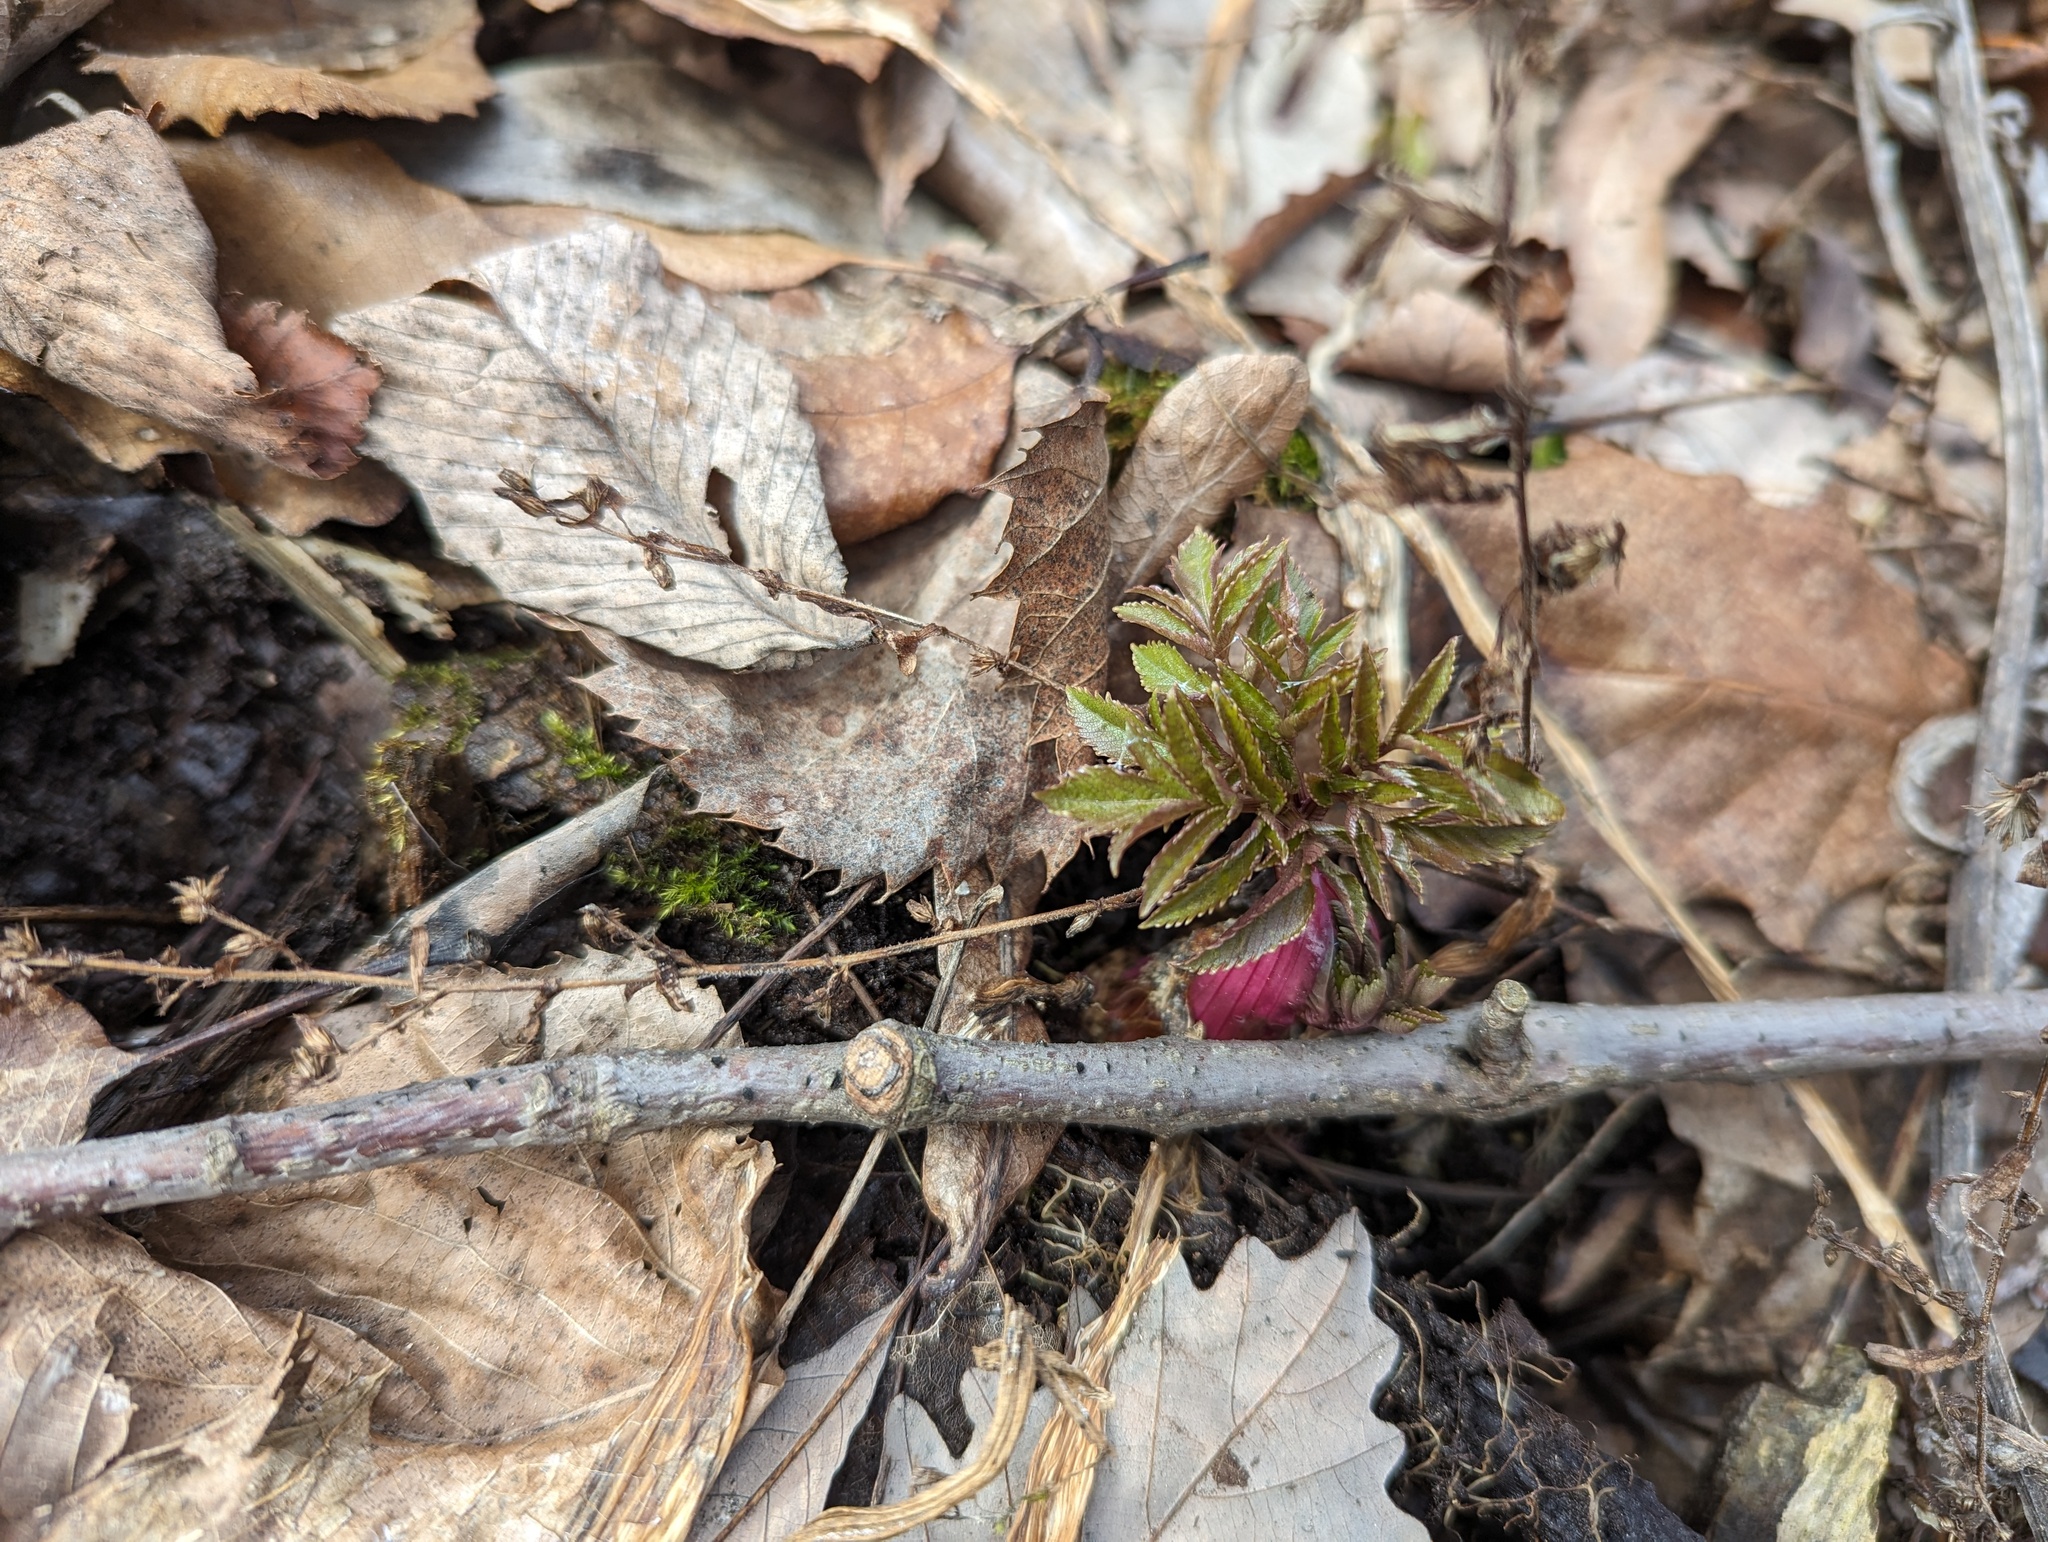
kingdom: Plantae
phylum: Tracheophyta
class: Magnoliopsida
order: Apiales
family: Apiaceae
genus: Angelica
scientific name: Angelica atropurpurea
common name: Great angelica
